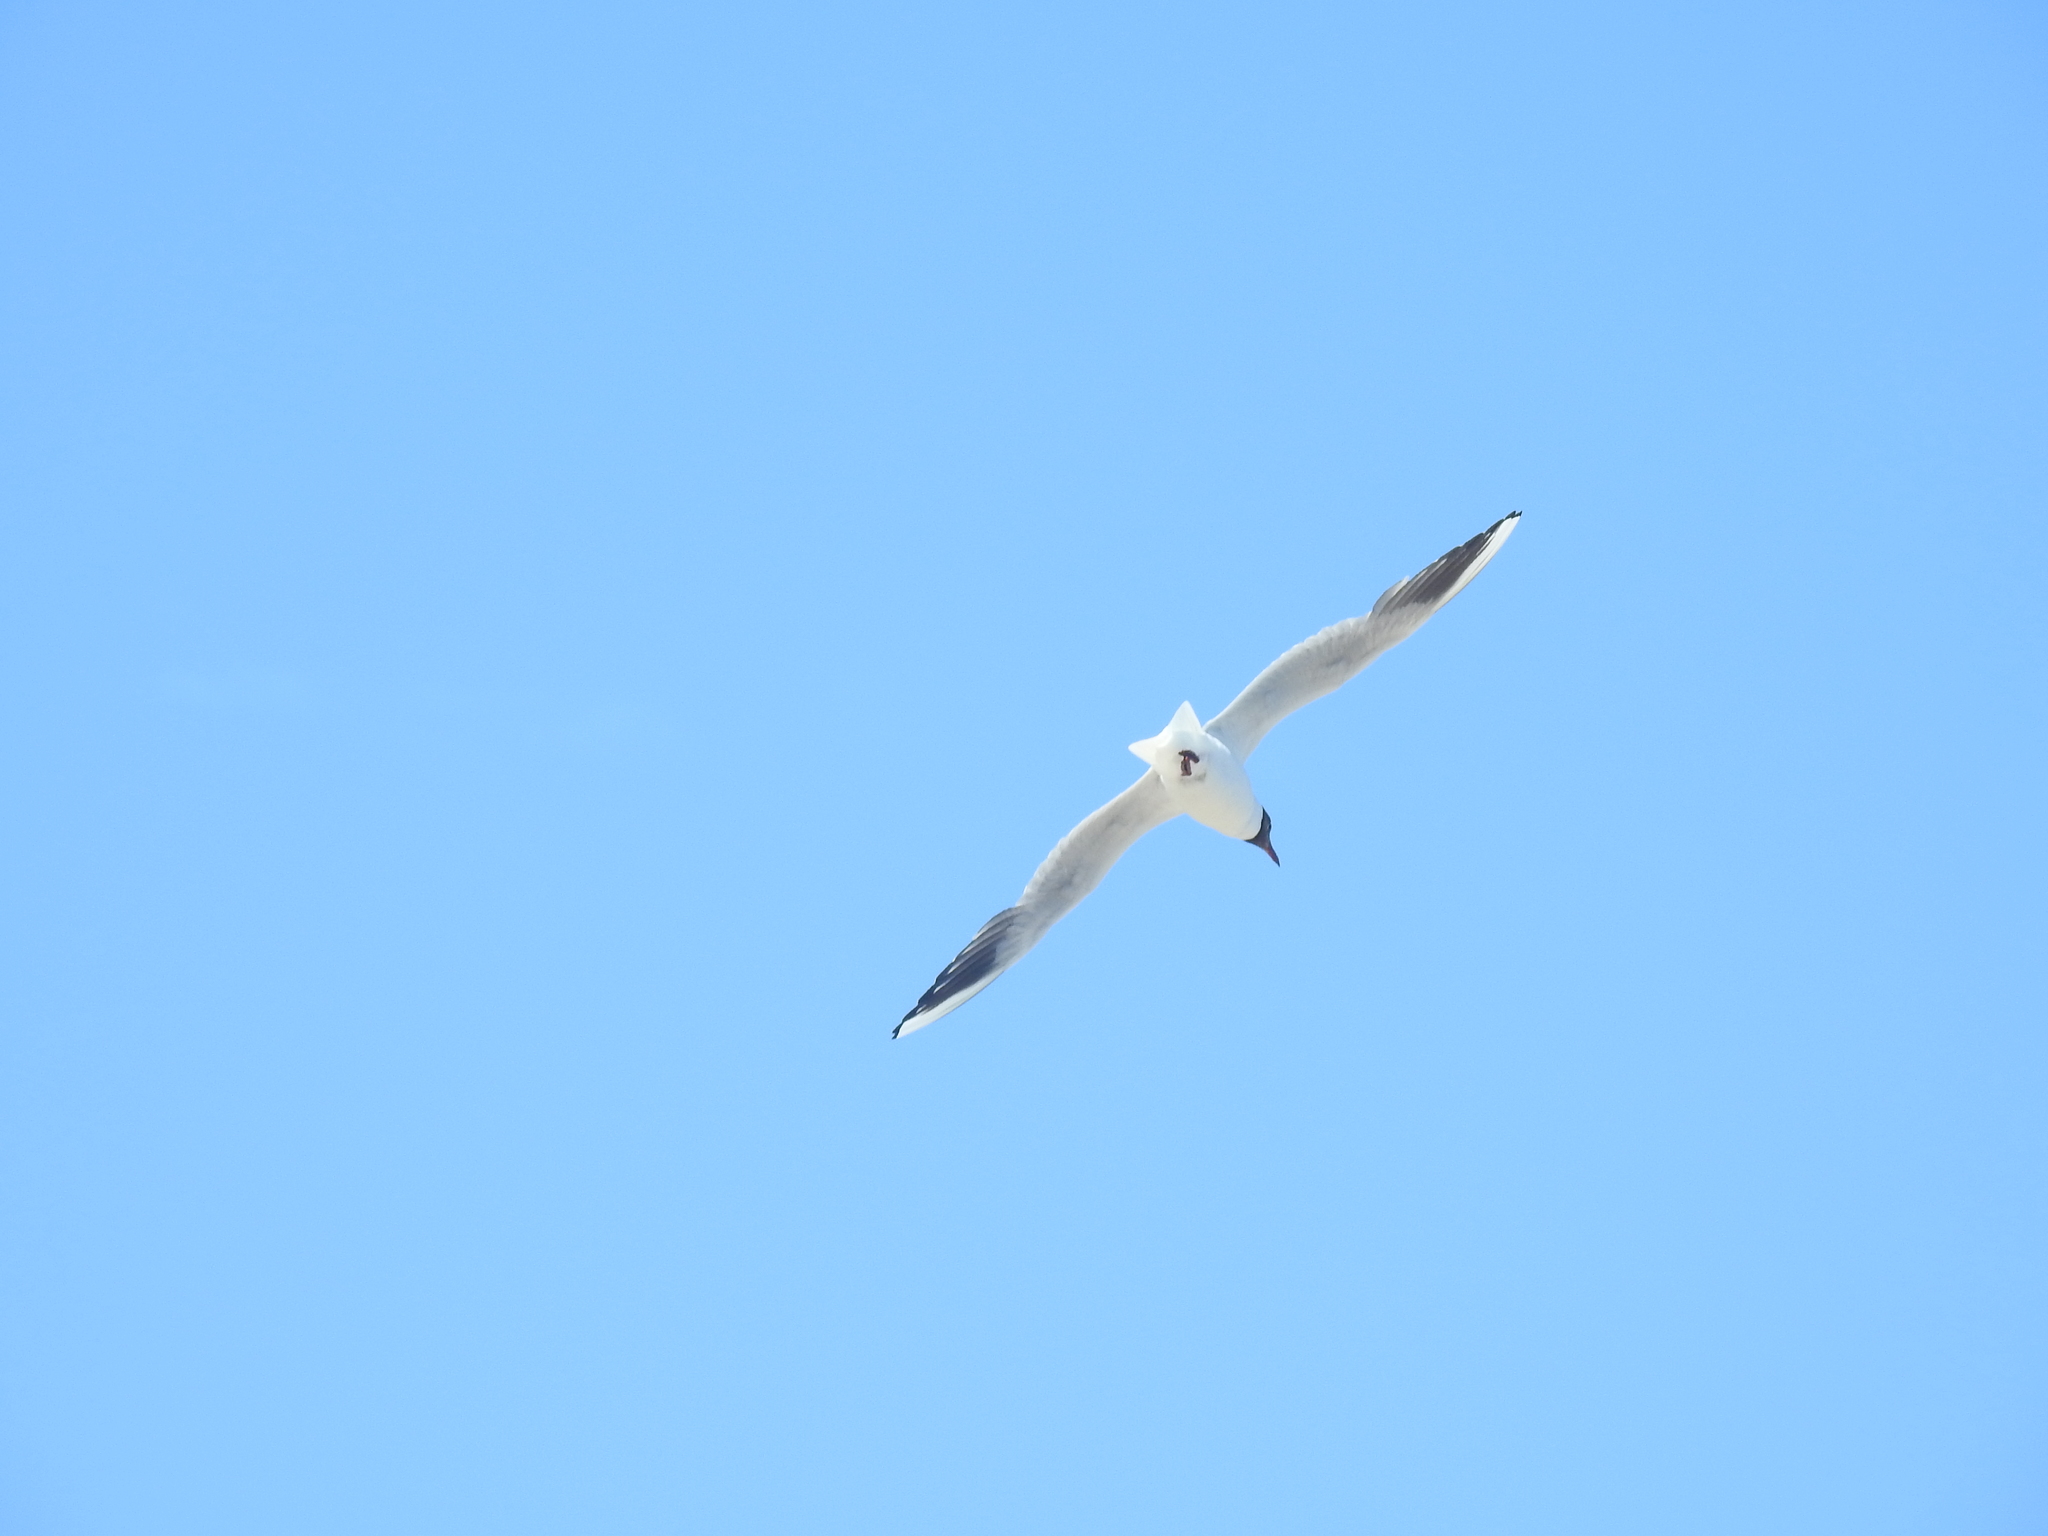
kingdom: Animalia
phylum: Chordata
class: Aves
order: Charadriiformes
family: Laridae
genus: Chroicocephalus
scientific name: Chroicocephalus ridibundus
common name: Black-headed gull
